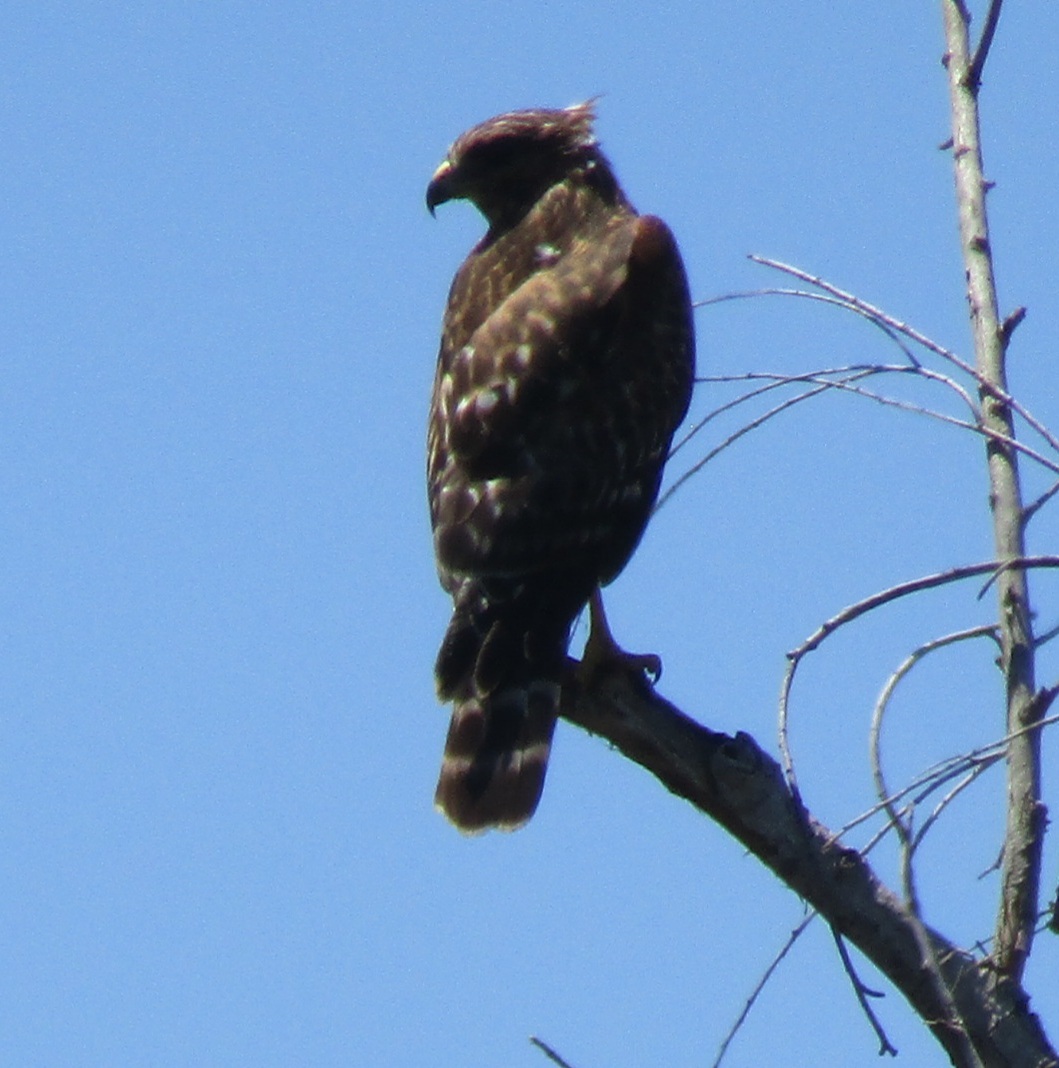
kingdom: Animalia
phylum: Chordata
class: Aves
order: Accipitriformes
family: Accipitridae
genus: Buteo
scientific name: Buteo lineatus
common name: Red-shouldered hawk
